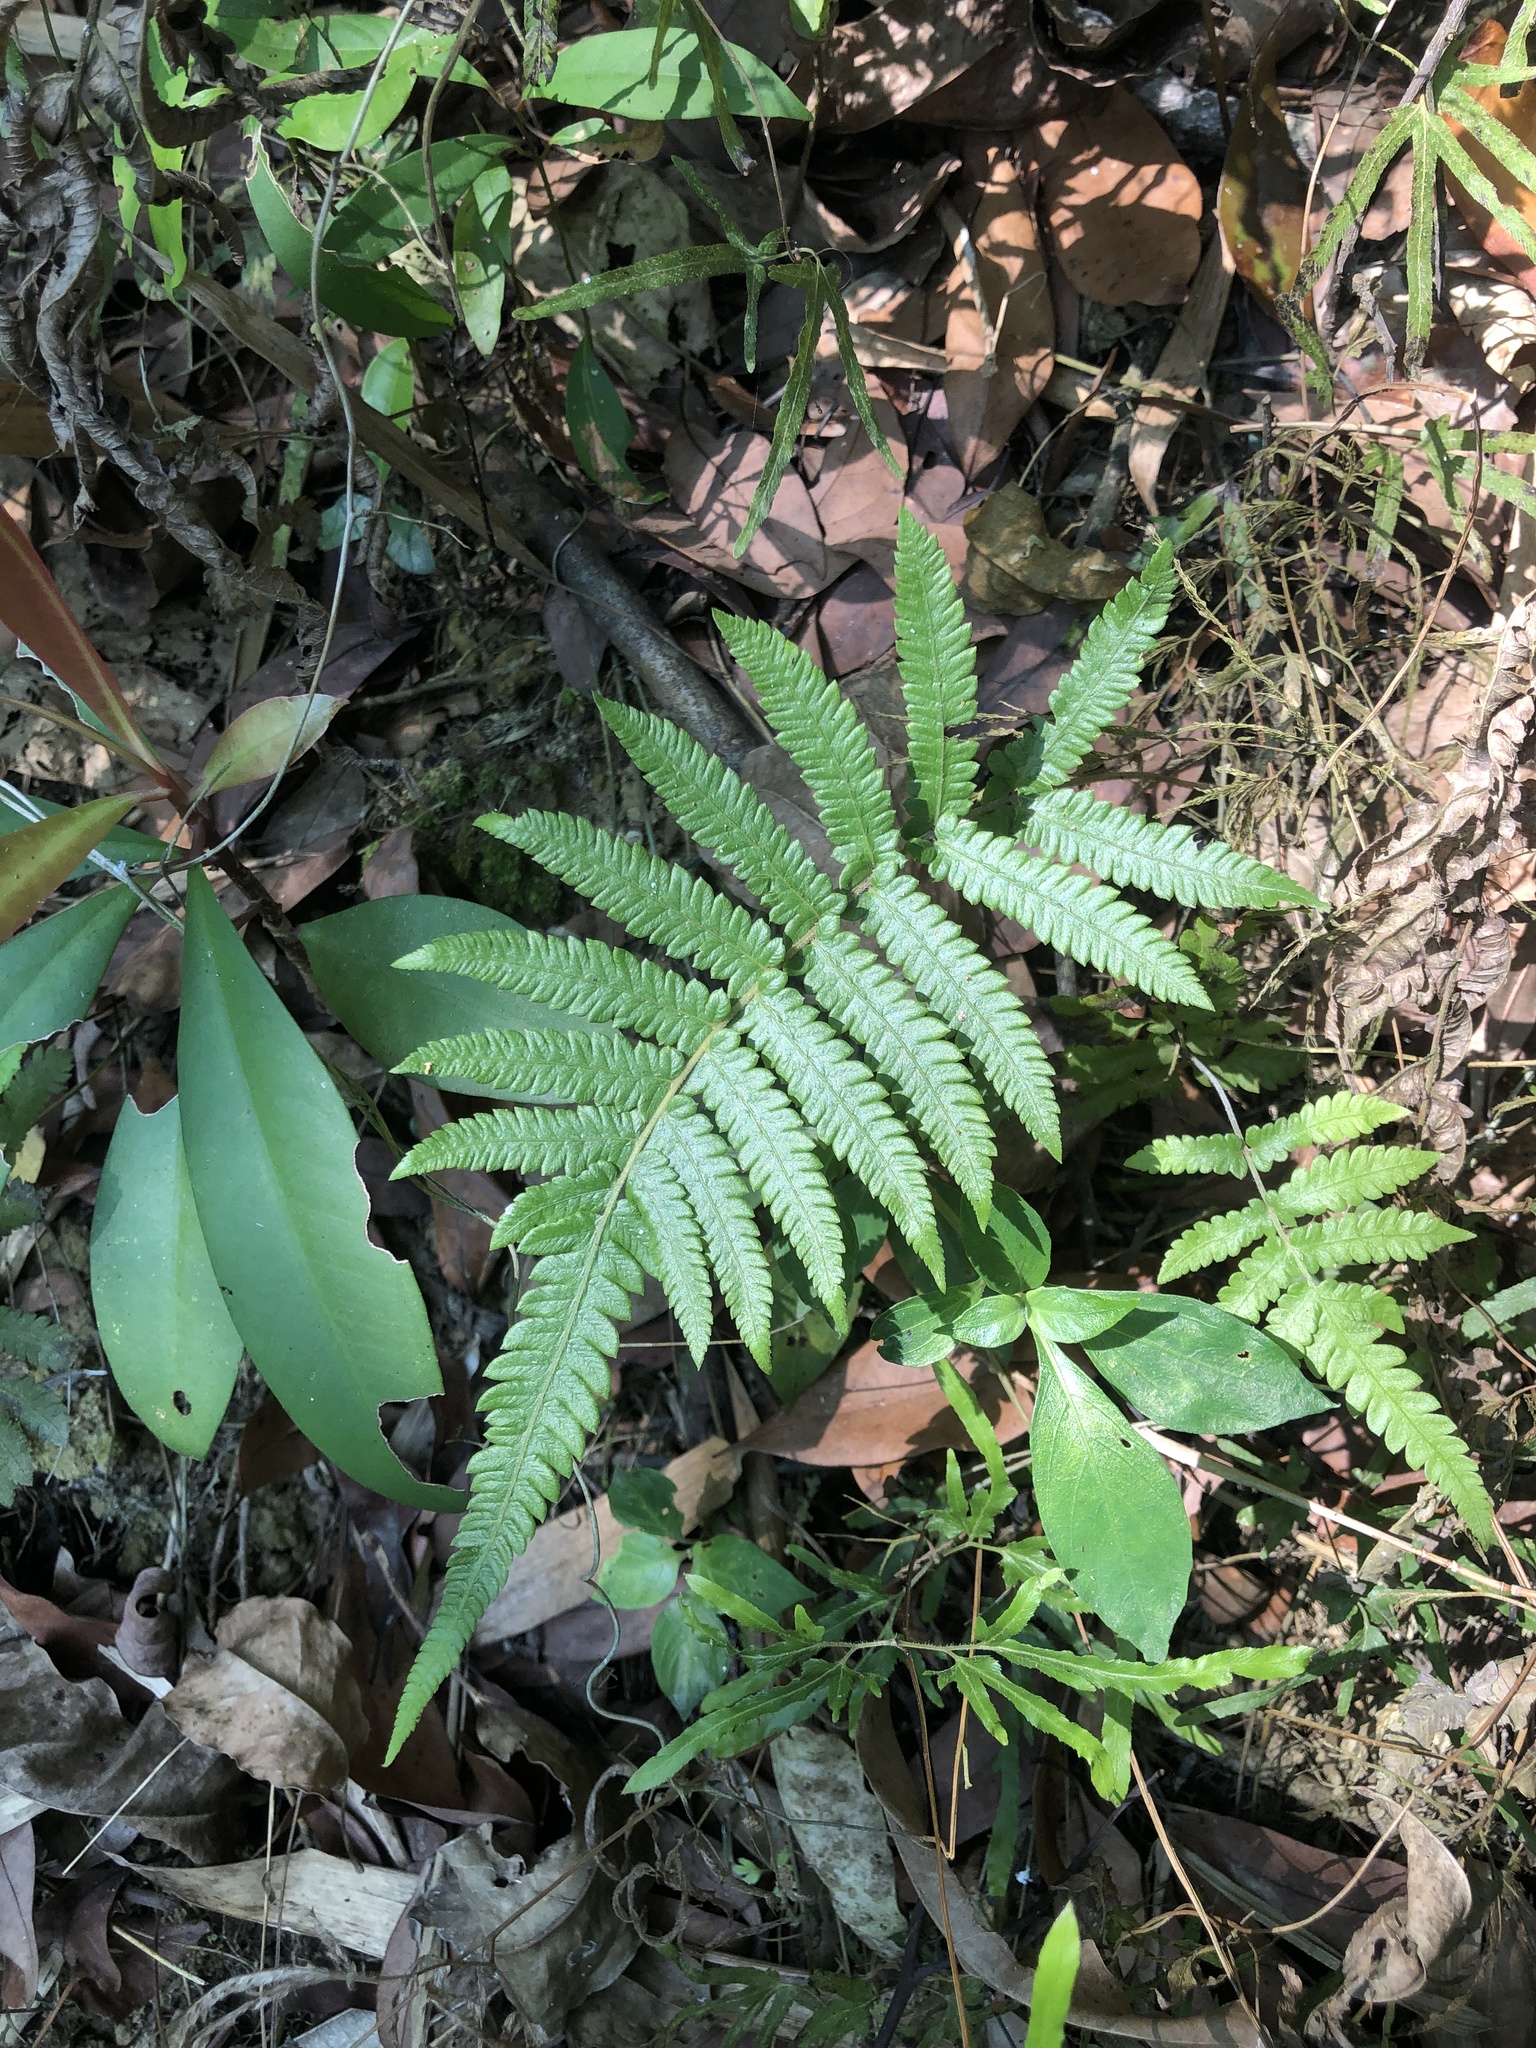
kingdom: Plantae
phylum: Tracheophyta
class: Polypodiopsida
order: Polypodiales
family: Thelypteridaceae
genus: Christella
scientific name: Christella acuminata
